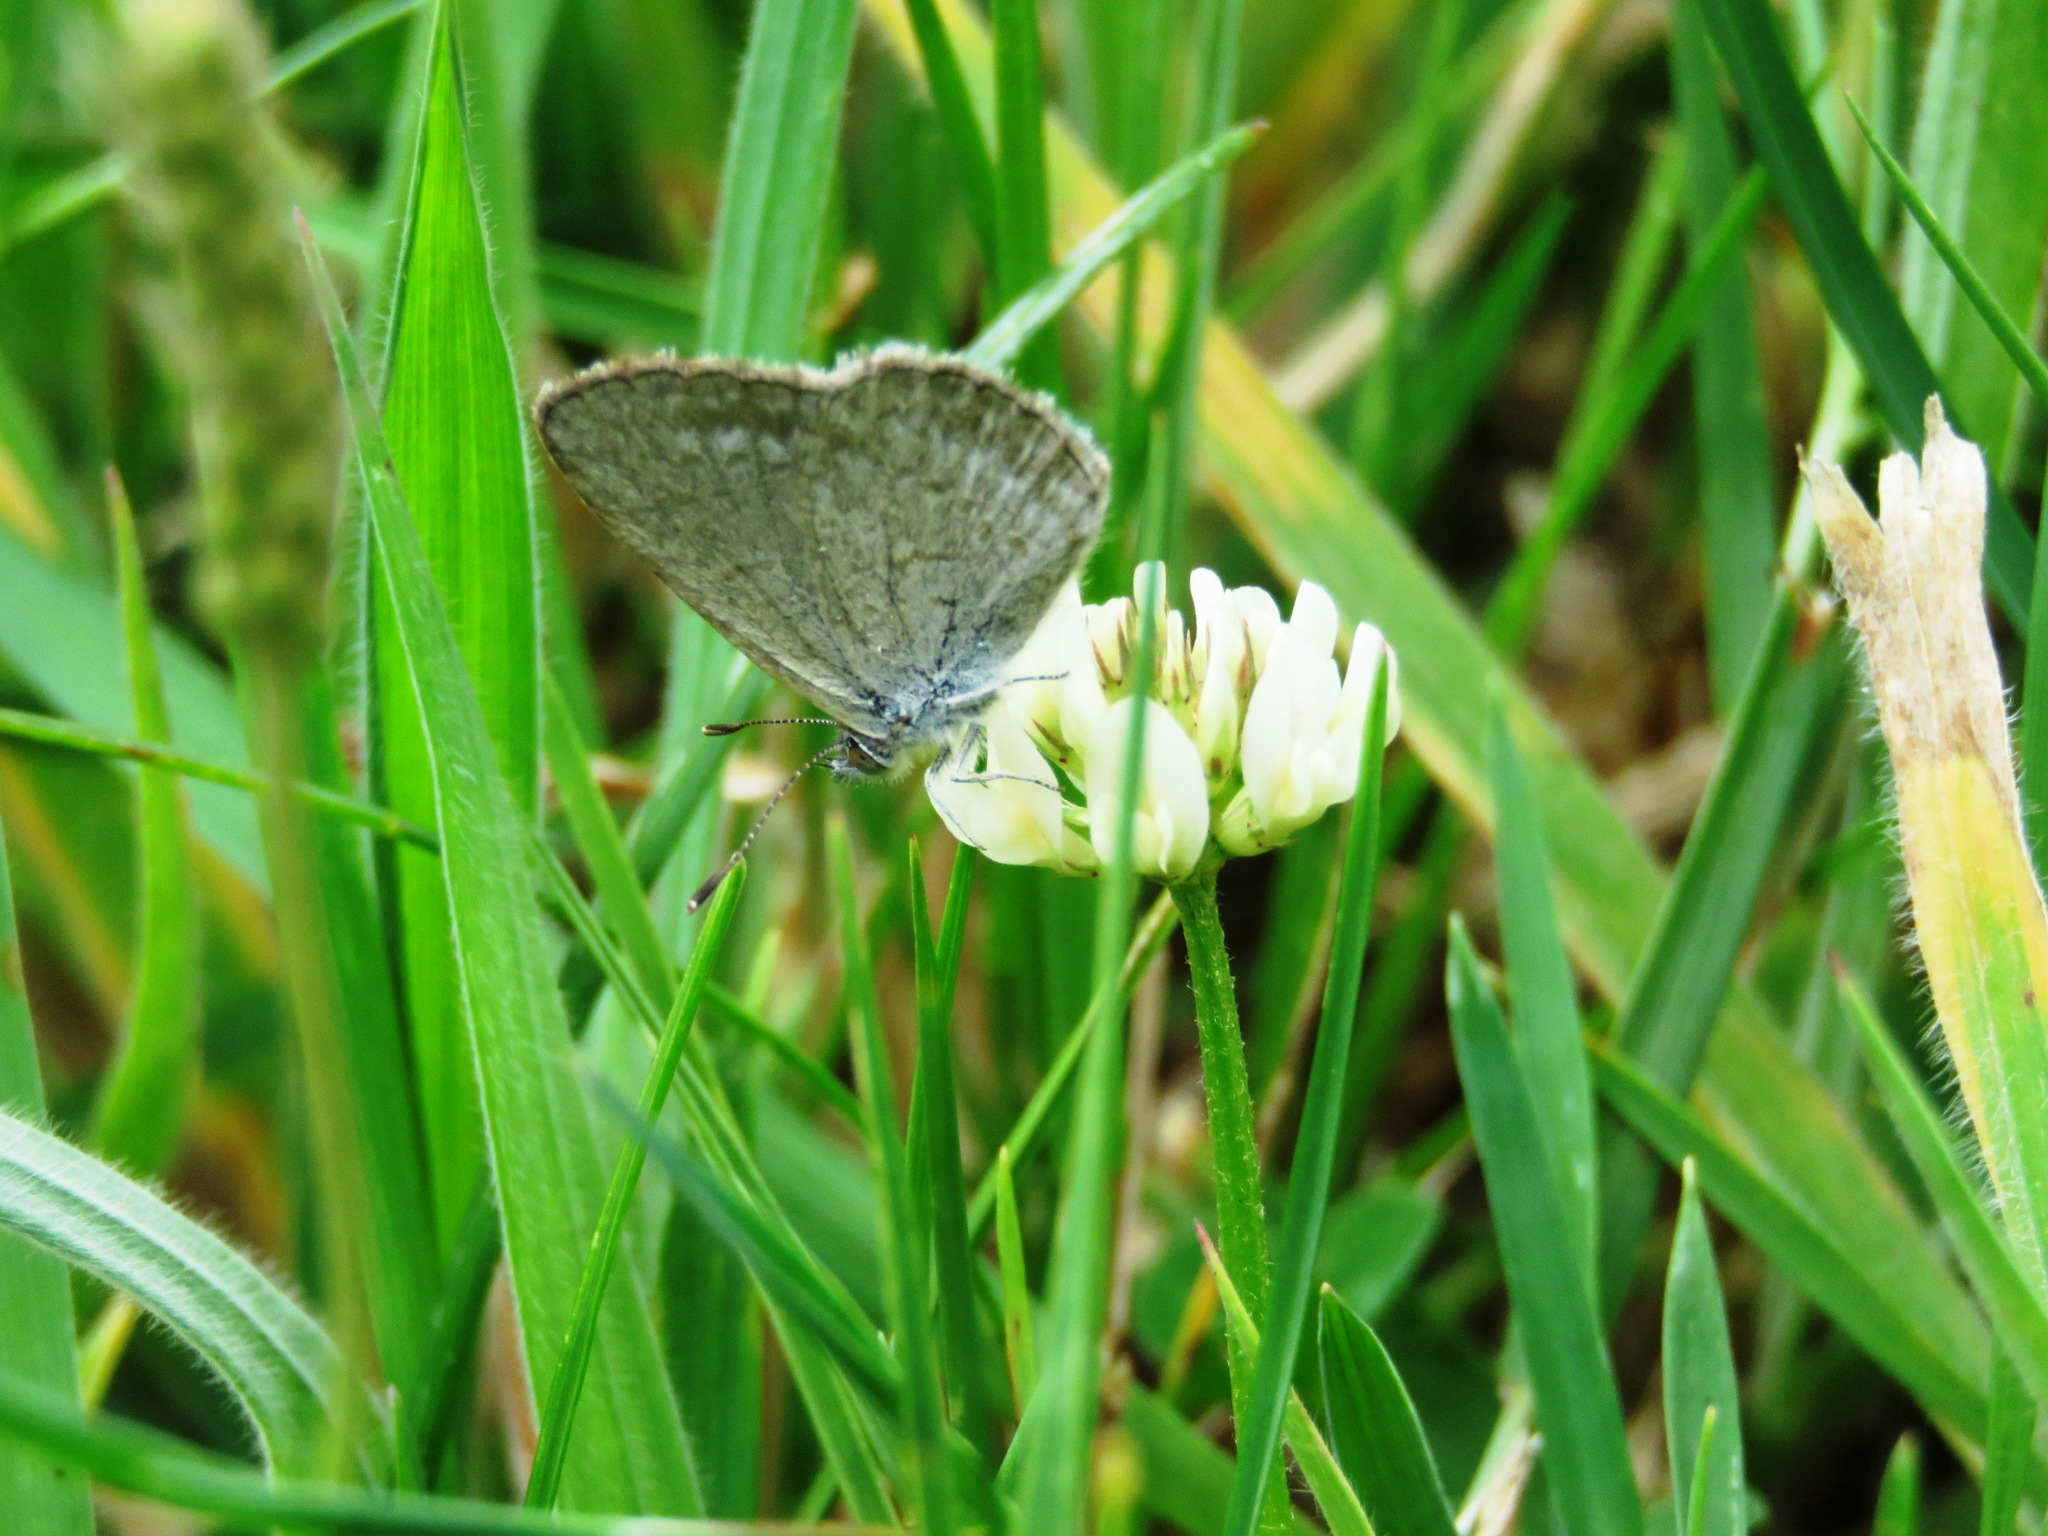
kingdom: Animalia
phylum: Arthropoda
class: Insecta
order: Lepidoptera
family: Lycaenidae
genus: Zizina
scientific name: Zizina labradus
